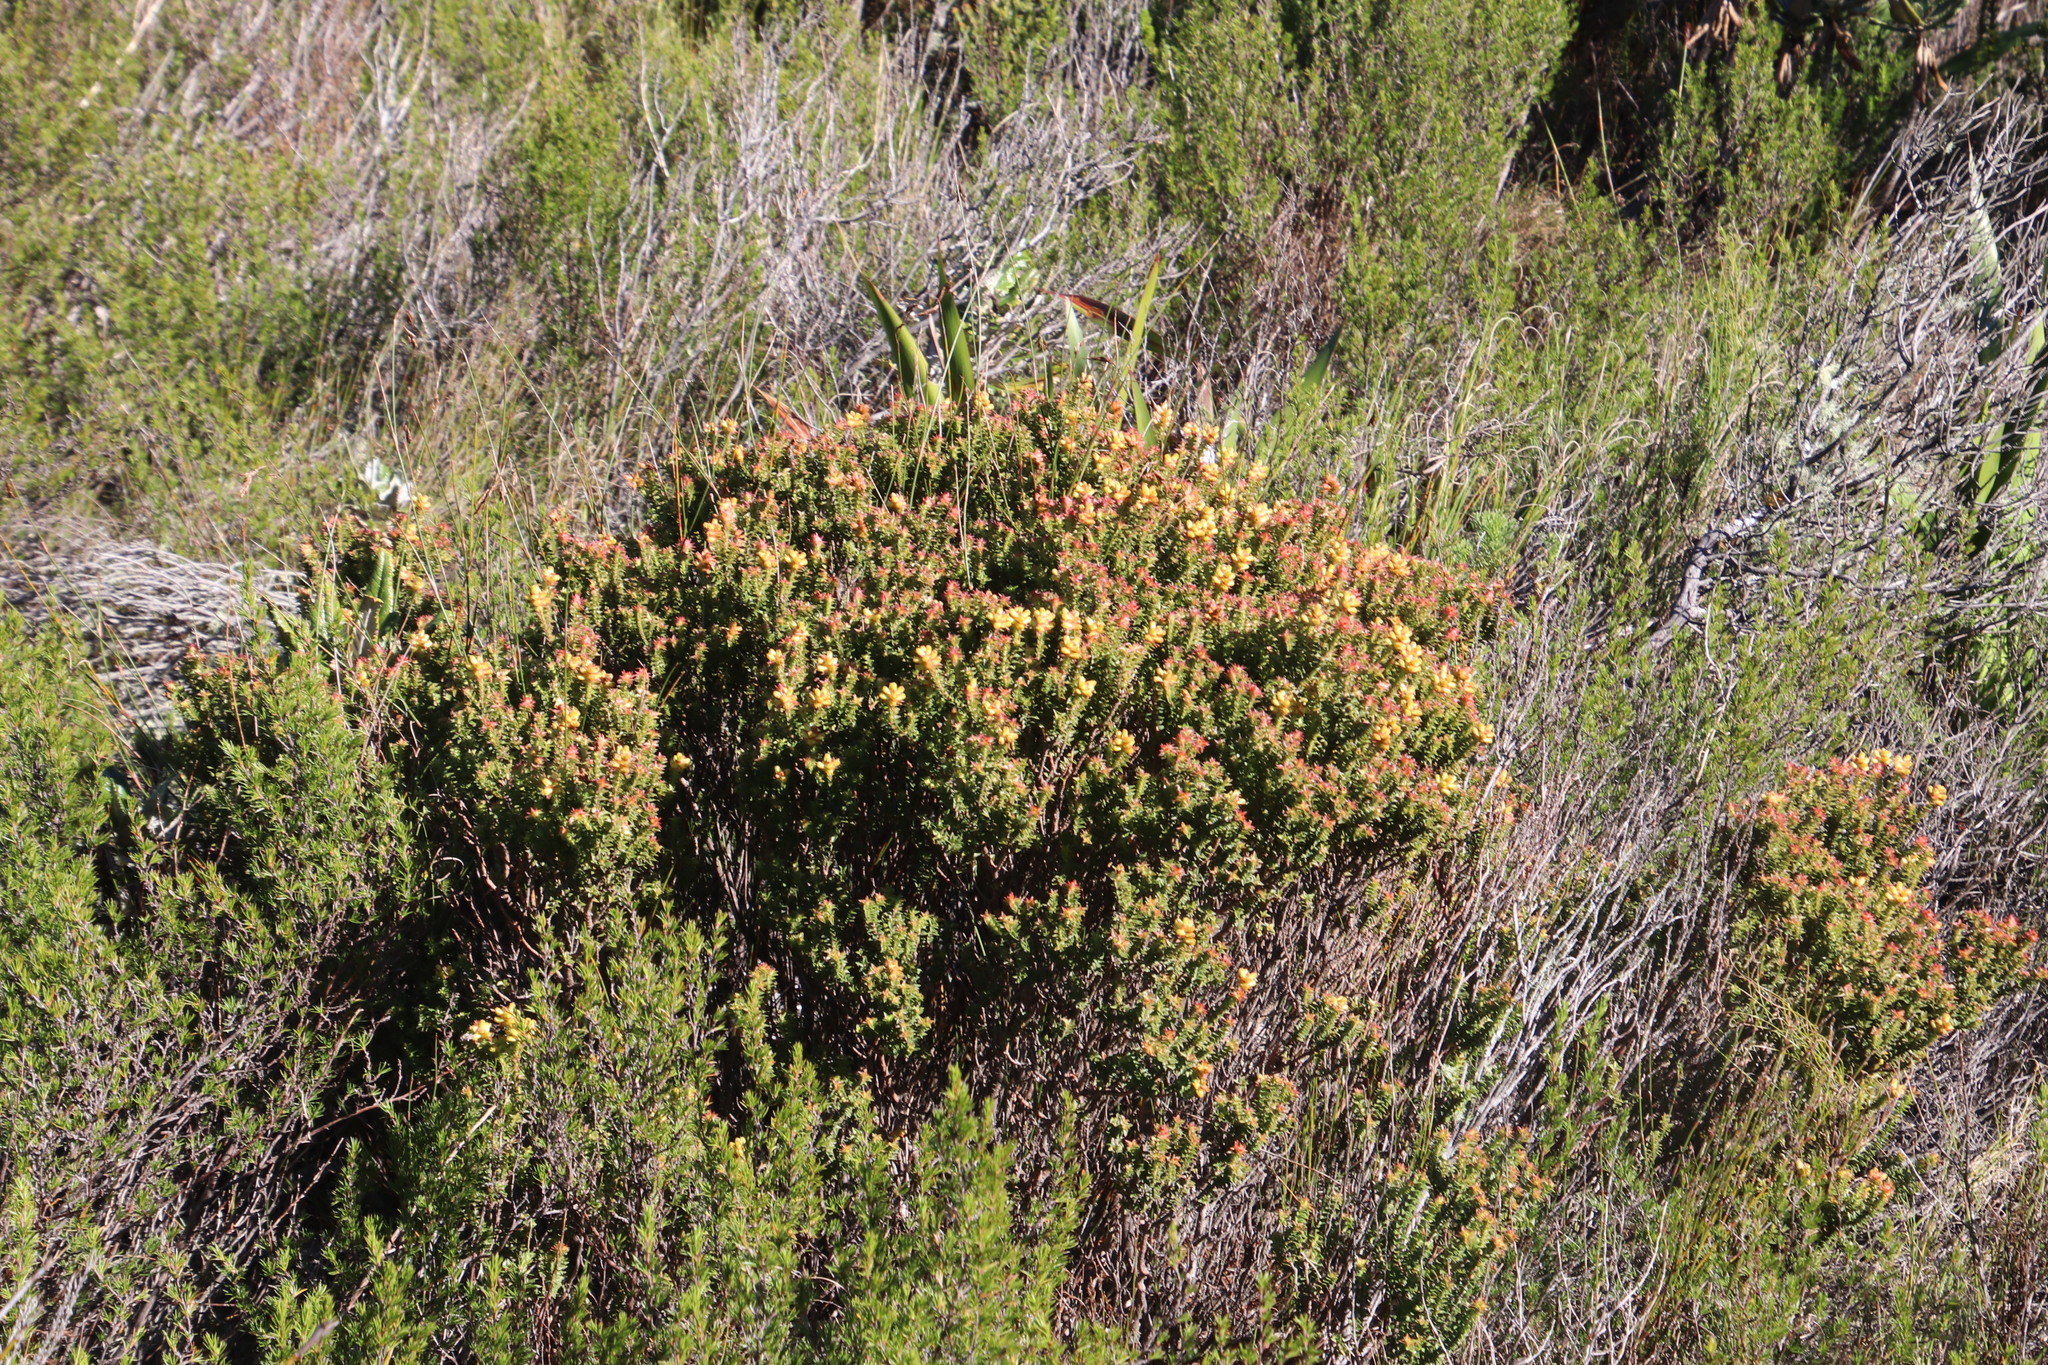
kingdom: Plantae
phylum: Tracheophyta
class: Magnoliopsida
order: Myrtales
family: Penaeaceae
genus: Penaea
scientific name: Penaea mucronata
